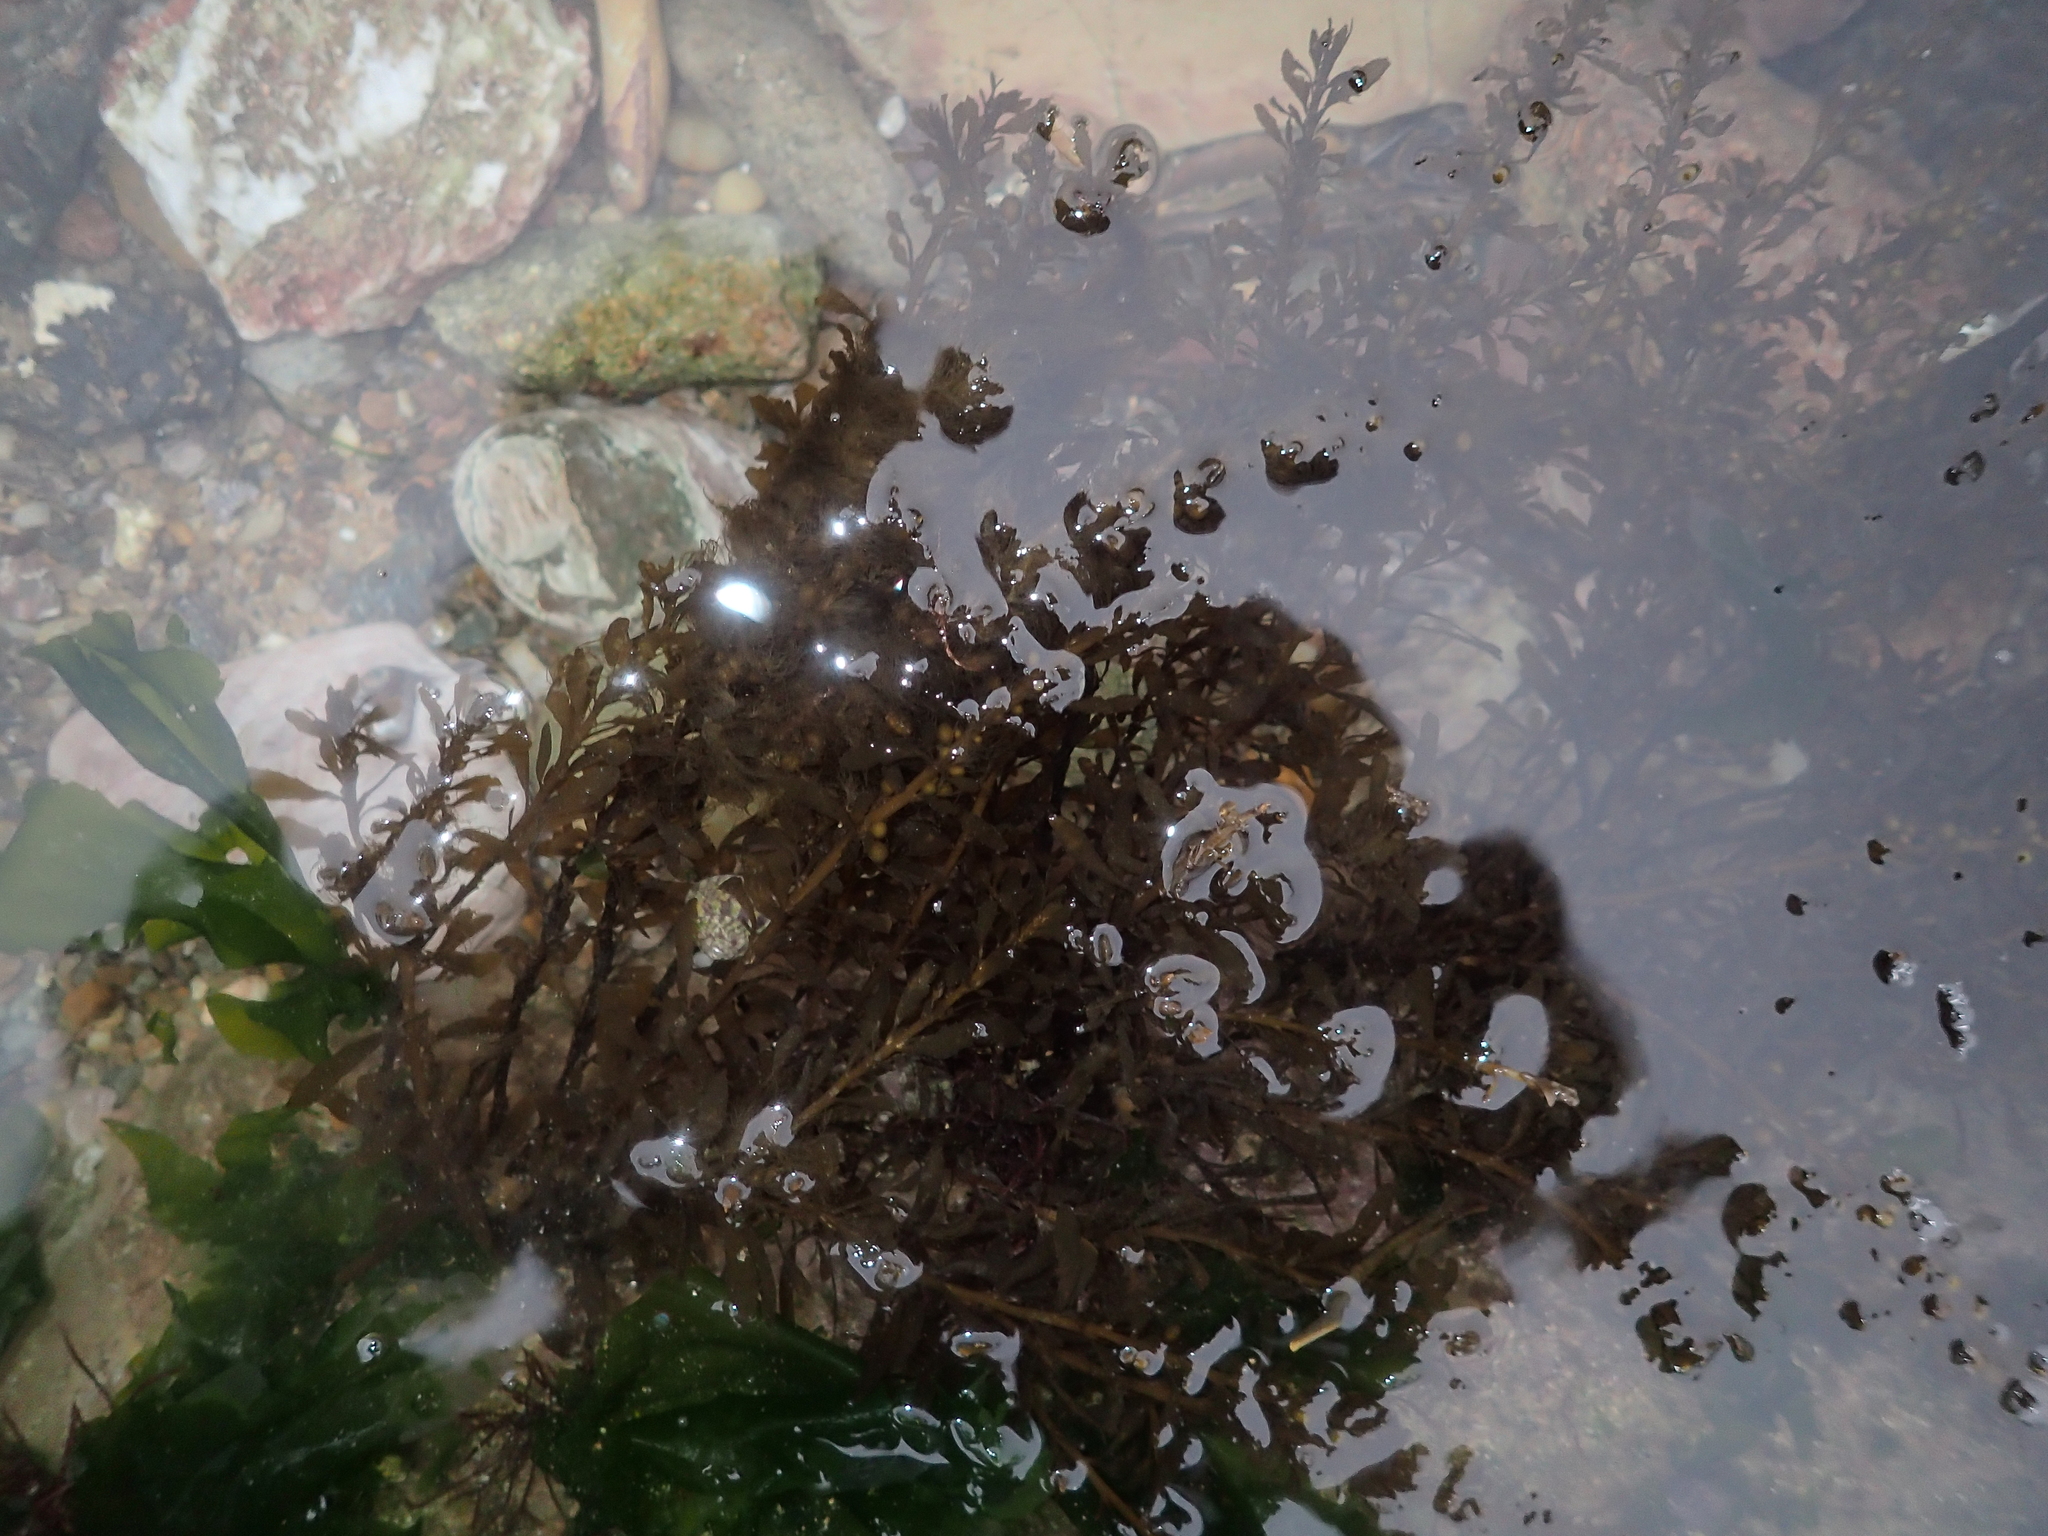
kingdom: Chromista
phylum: Ochrophyta
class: Phaeophyceae
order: Fucales
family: Sargassaceae
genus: Sargassum
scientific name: Sargassum muticum
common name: Japweed
